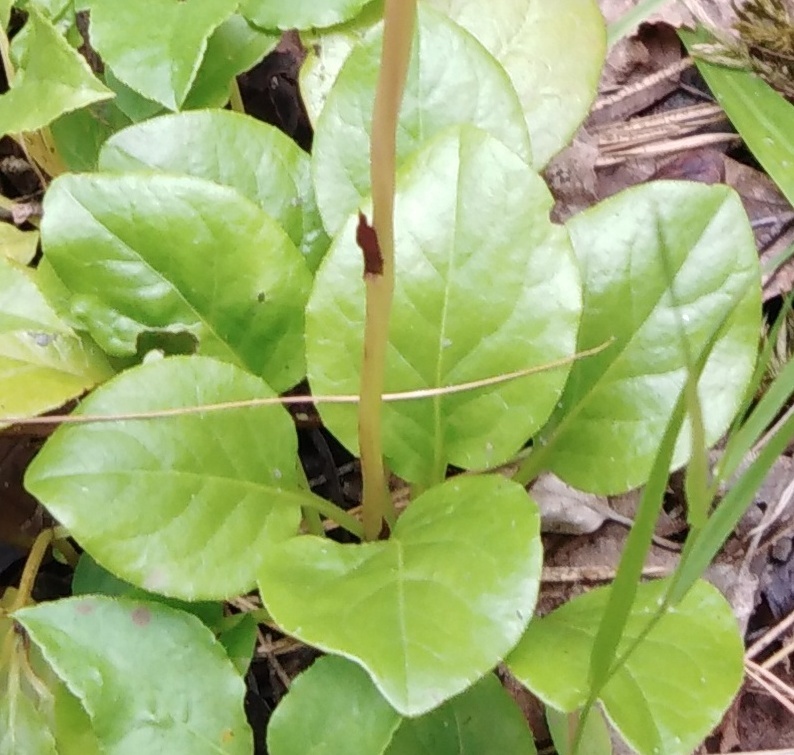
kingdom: Plantae
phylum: Tracheophyta
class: Magnoliopsida
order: Ericales
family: Ericaceae
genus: Pyrola
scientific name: Pyrola rotundifolia
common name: Round-leaved wintergreen
